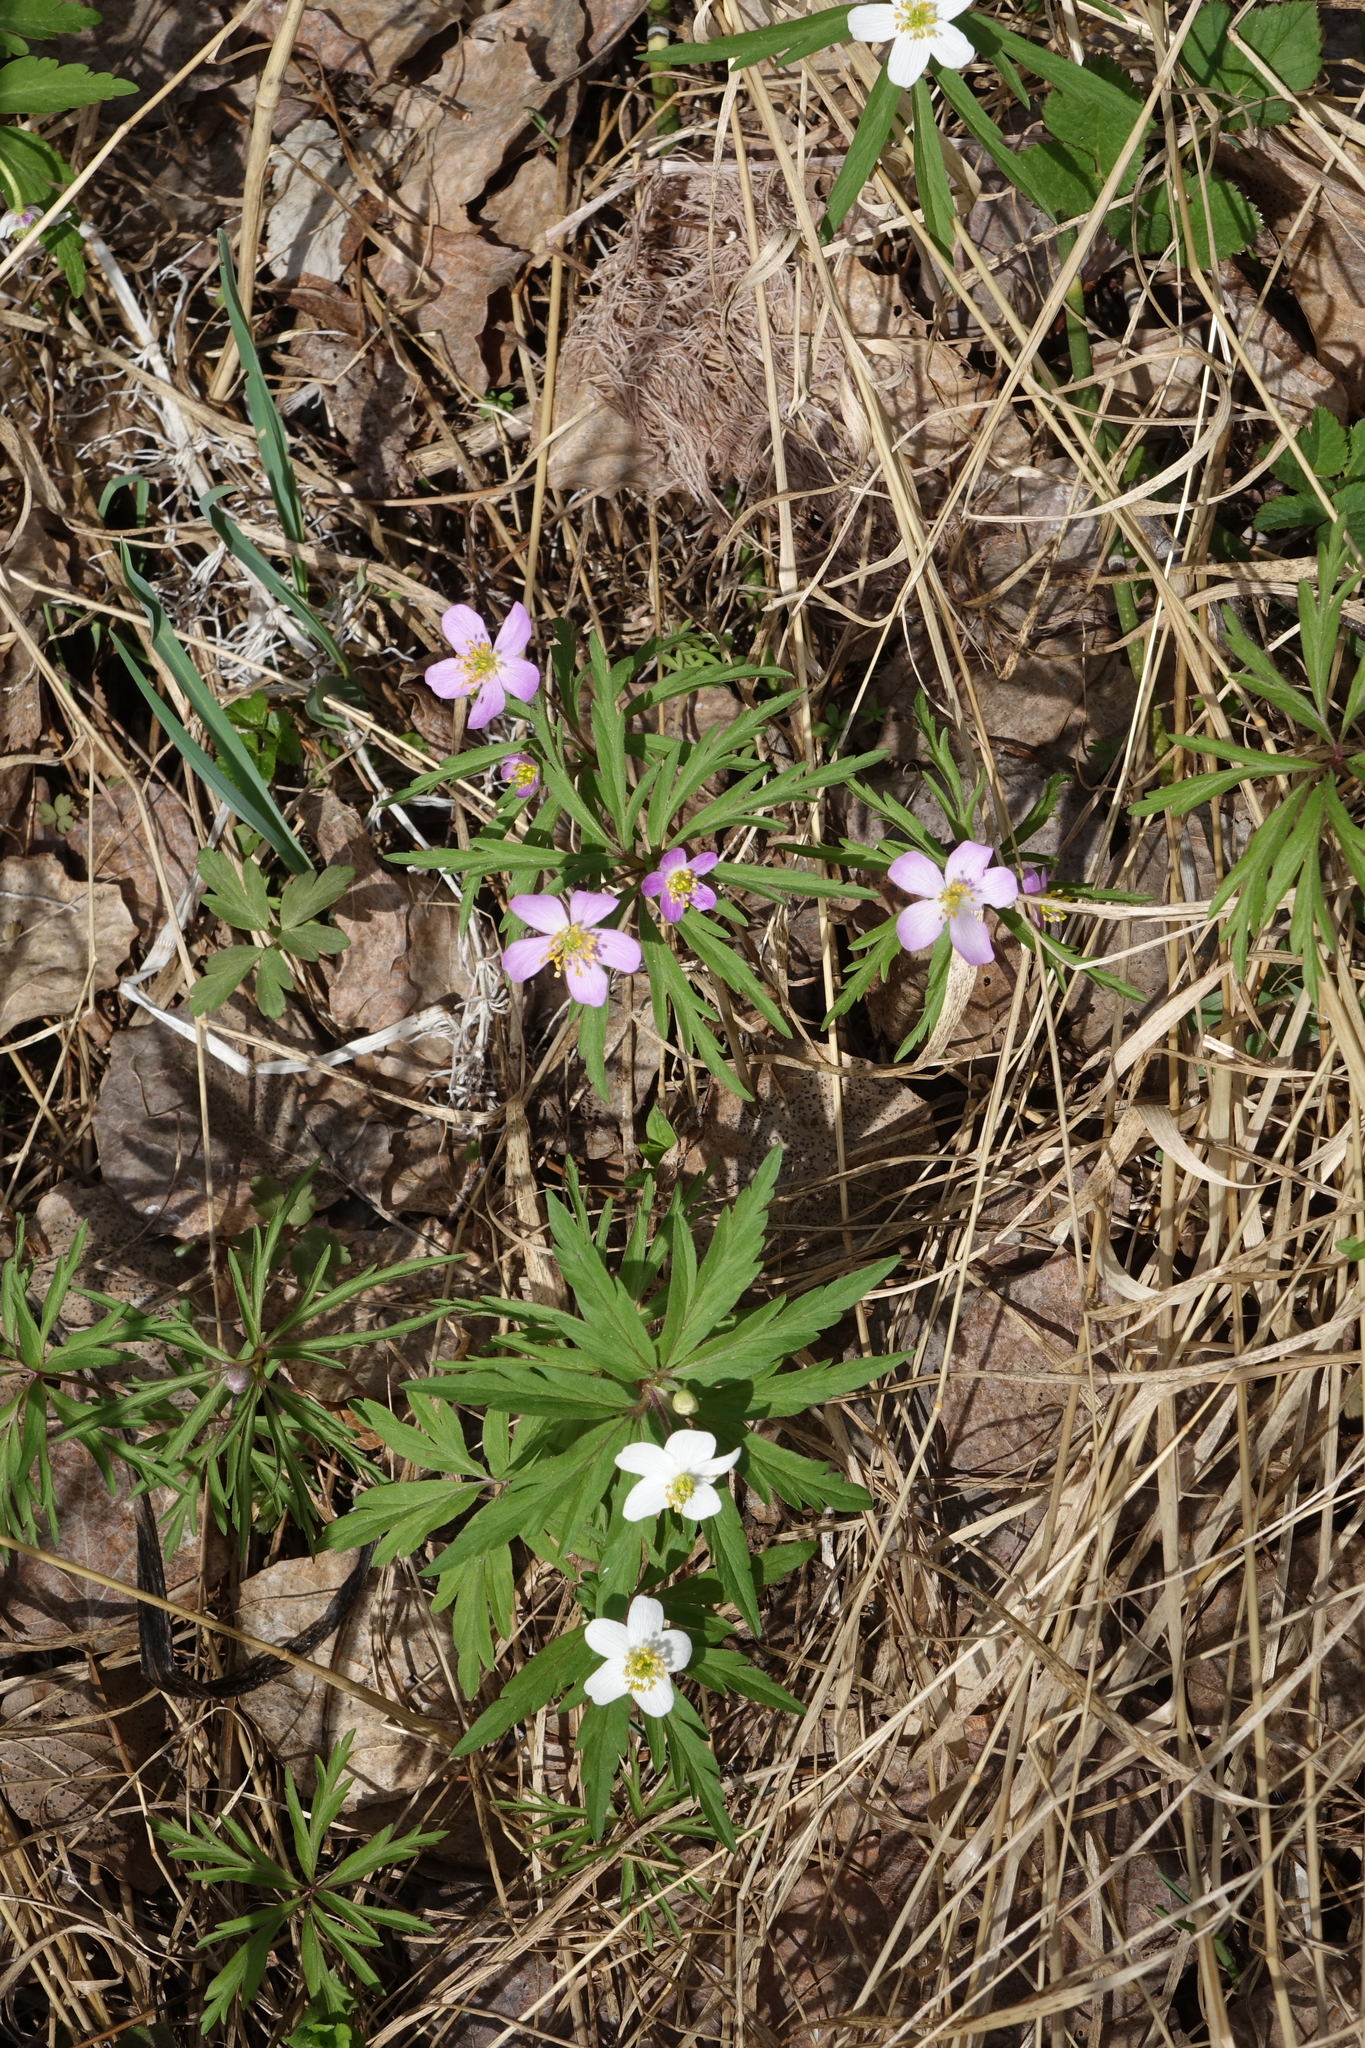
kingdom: Plantae
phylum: Tracheophyta
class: Magnoliopsida
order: Ranunculales
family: Ranunculaceae
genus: Anemone
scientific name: Anemone caerulea
